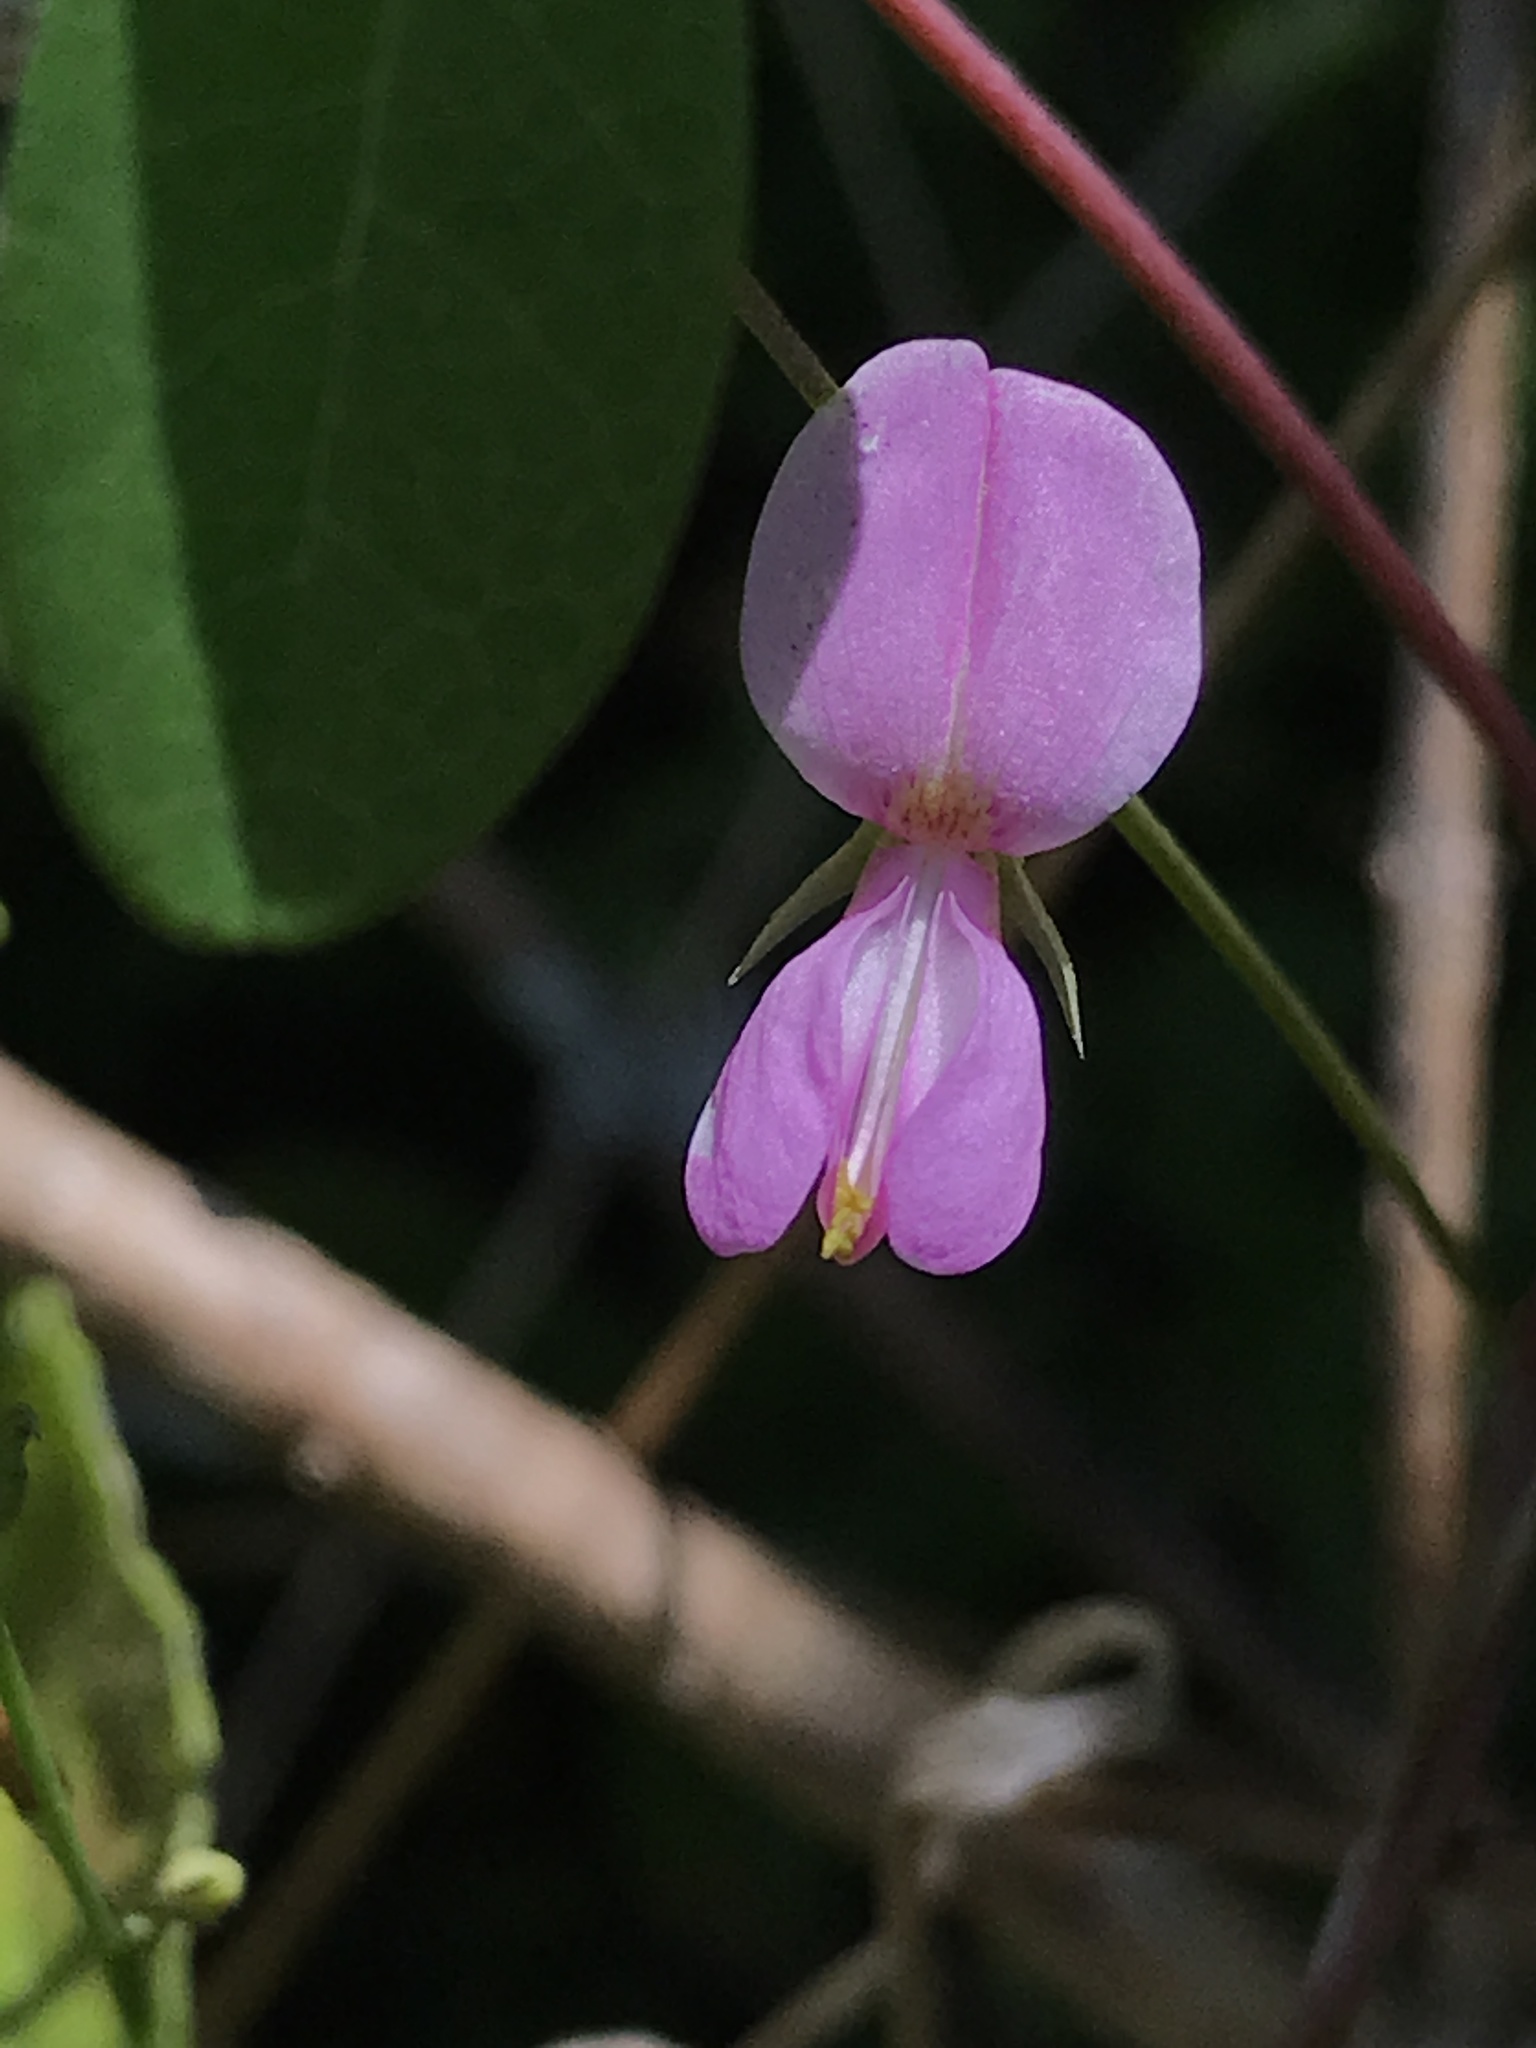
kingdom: Plantae
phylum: Tracheophyta
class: Magnoliopsida
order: Fabales
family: Fabaceae
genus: Galactia
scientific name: Galactia regularis
